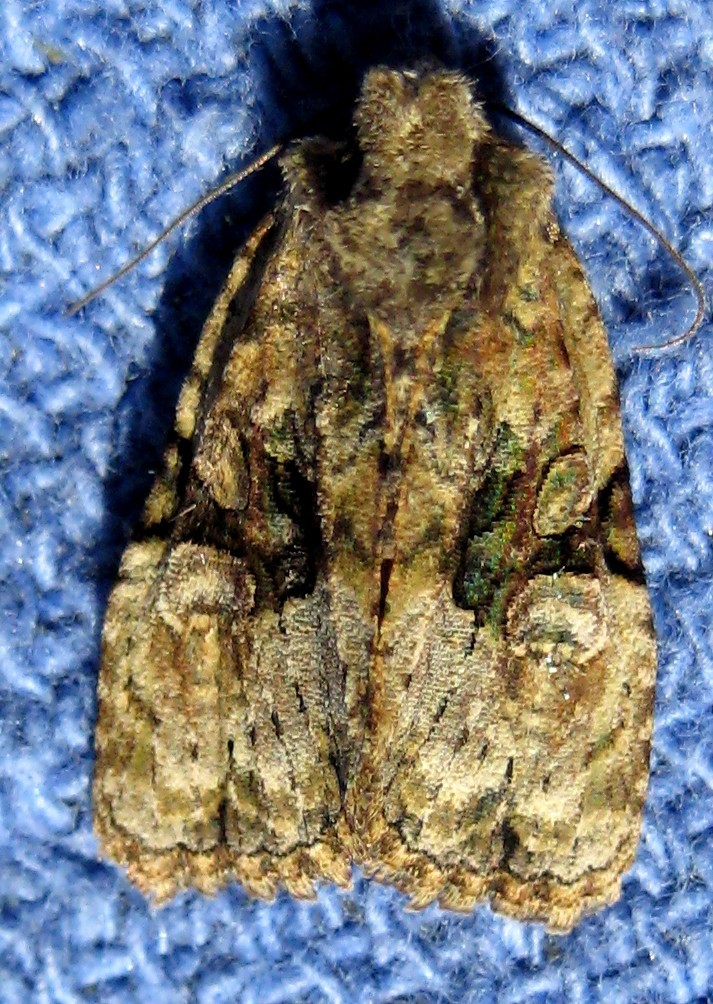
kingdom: Animalia
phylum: Arthropoda
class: Insecta
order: Lepidoptera
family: Noctuidae
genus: Oligia
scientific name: Oligia modica
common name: Black-banded brocade
